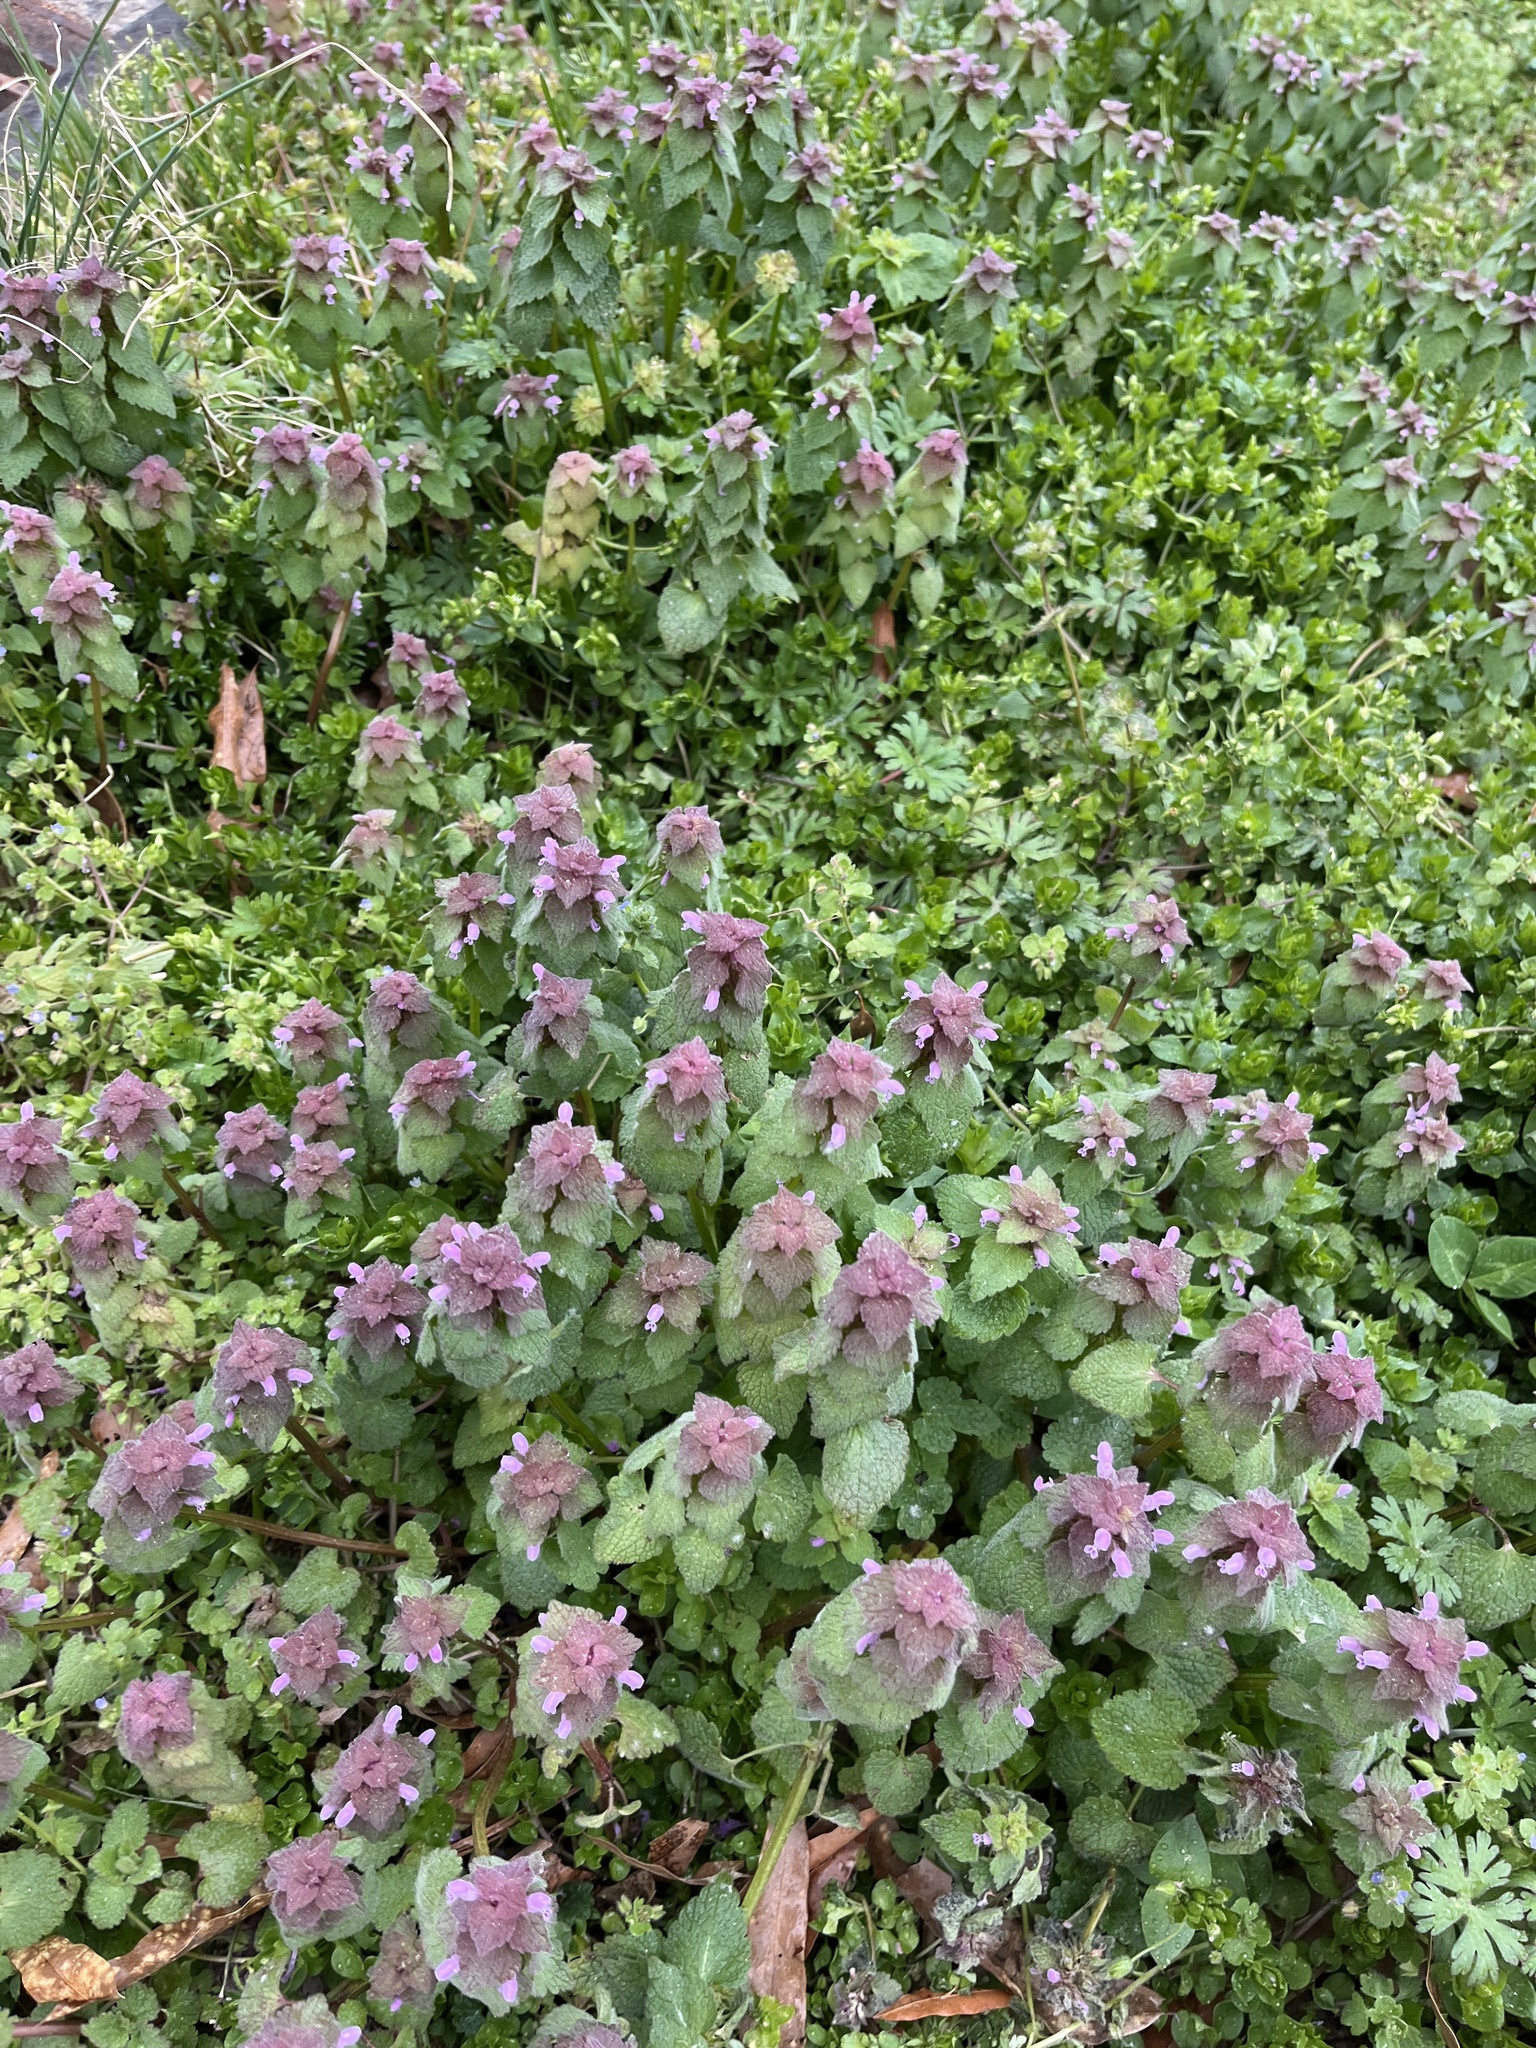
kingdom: Plantae
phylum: Tracheophyta
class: Magnoliopsida
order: Lamiales
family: Lamiaceae
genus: Lamium
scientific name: Lamium purpureum
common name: Red dead-nettle
